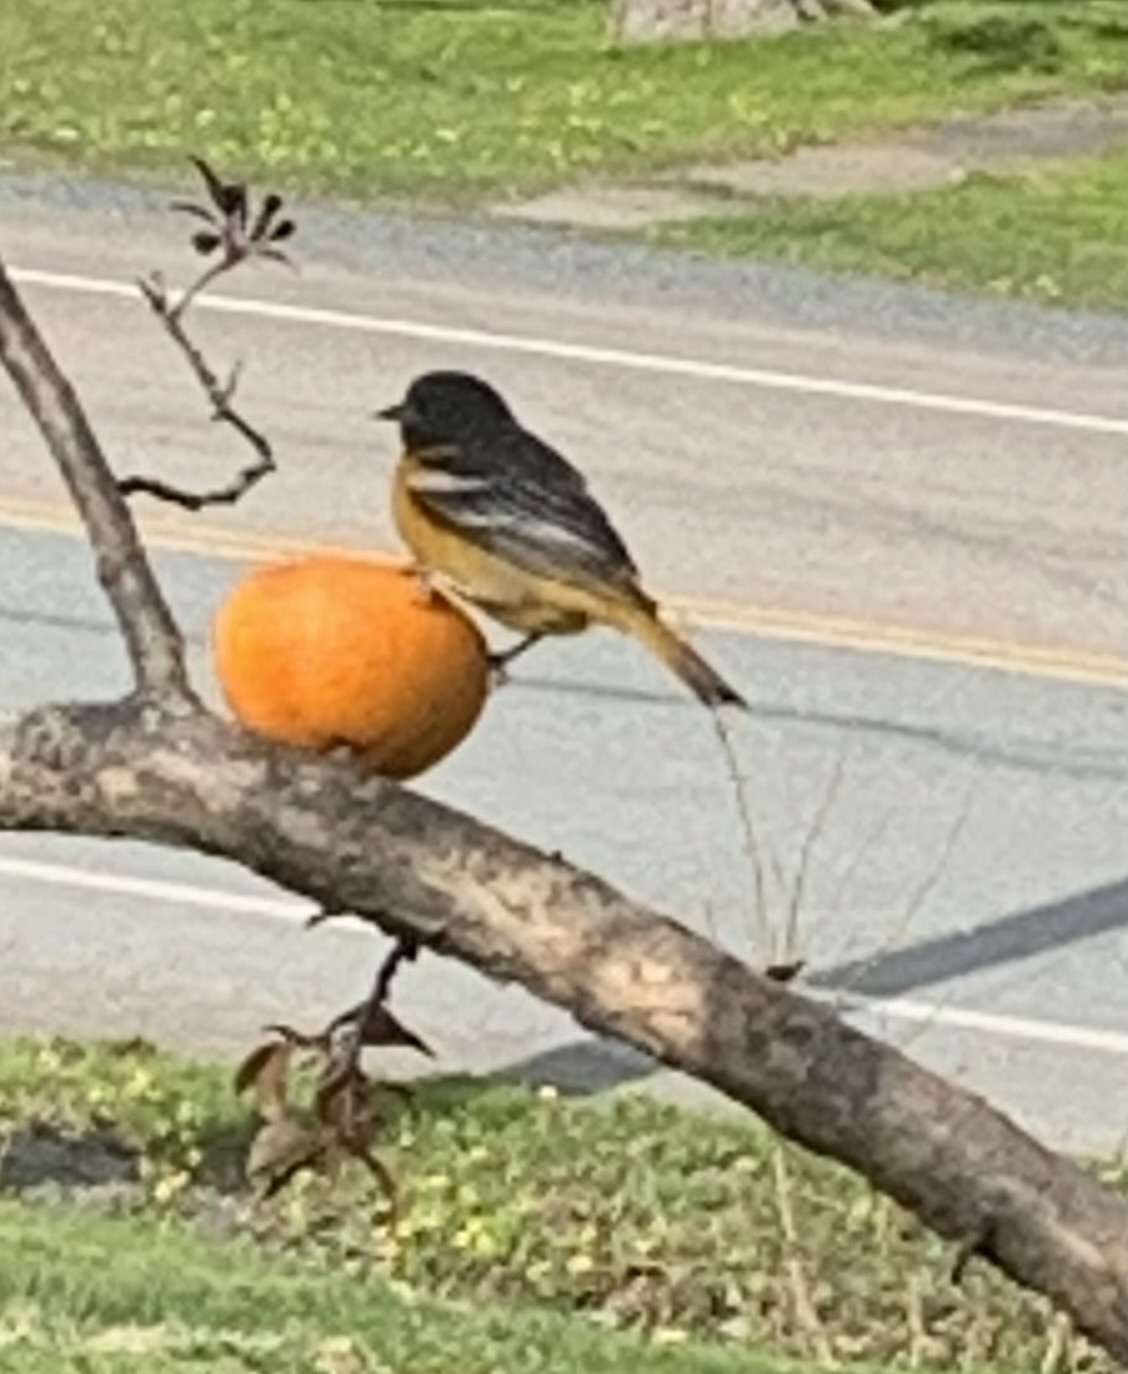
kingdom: Animalia
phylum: Chordata
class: Aves
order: Passeriformes
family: Icteridae
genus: Icterus
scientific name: Icterus galbula
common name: Baltimore oriole
